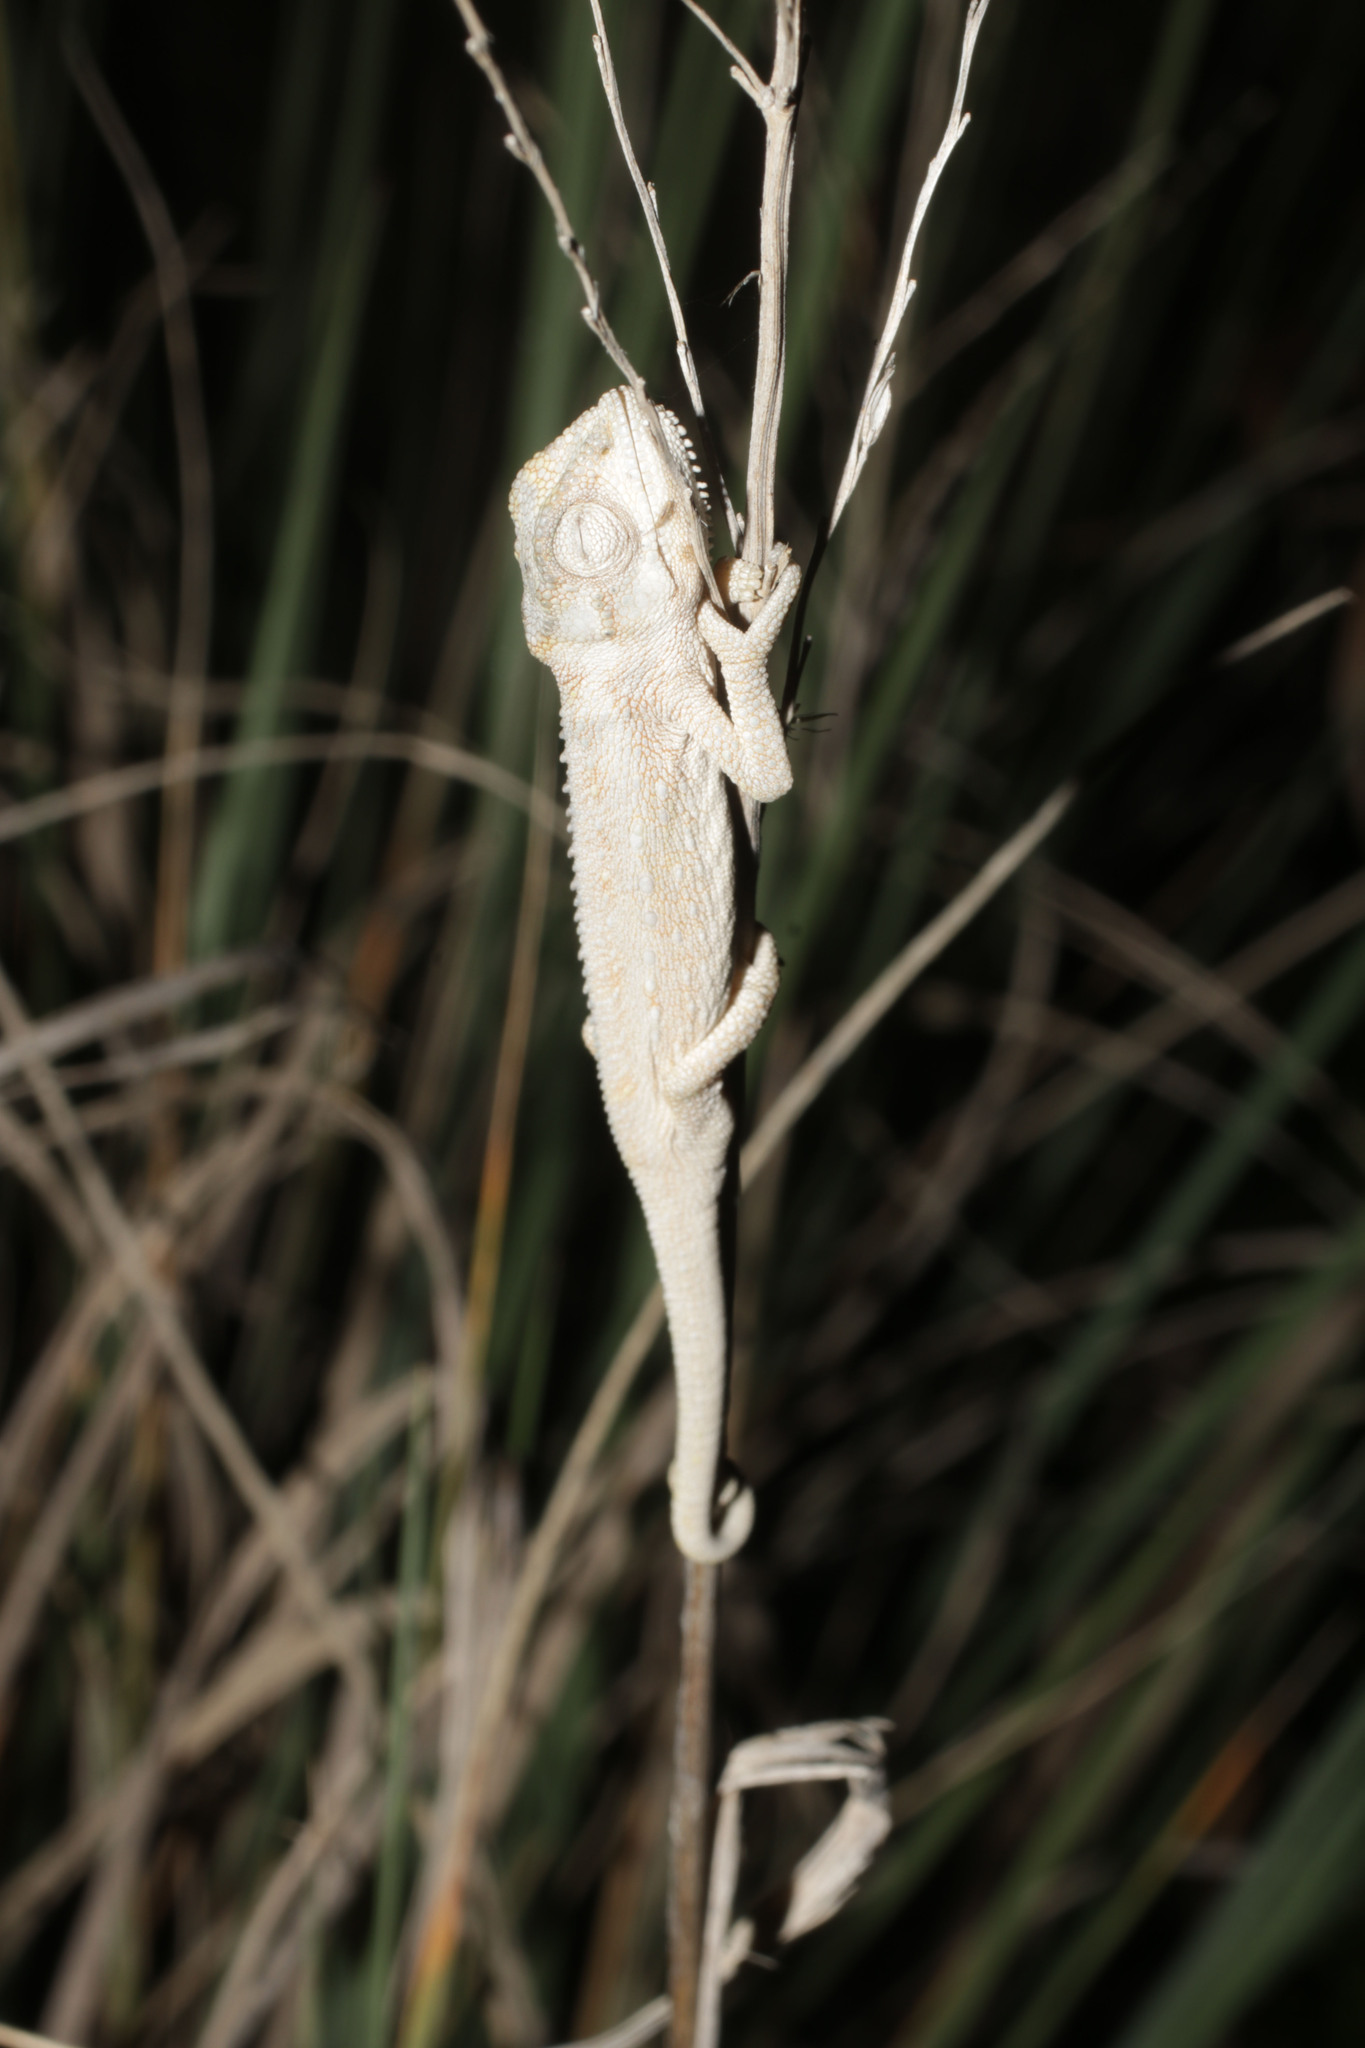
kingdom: Animalia
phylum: Chordata
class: Squamata
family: Chamaeleonidae
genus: Bradypodion
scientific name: Bradypodion pumilum
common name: Cape dwarf chameleon
